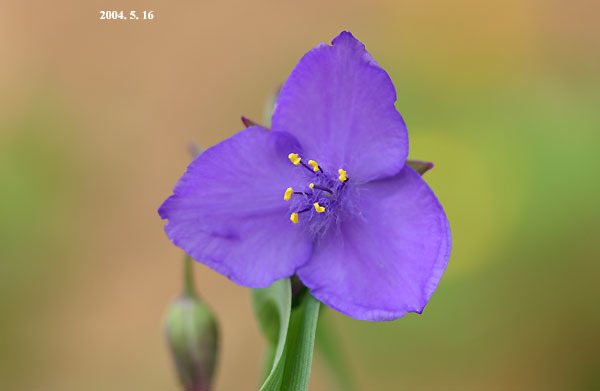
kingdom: Plantae
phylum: Tracheophyta
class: Liliopsida
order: Commelinales
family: Commelinaceae
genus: Tradescantia
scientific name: Tradescantia virginiana
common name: Spiderwort
